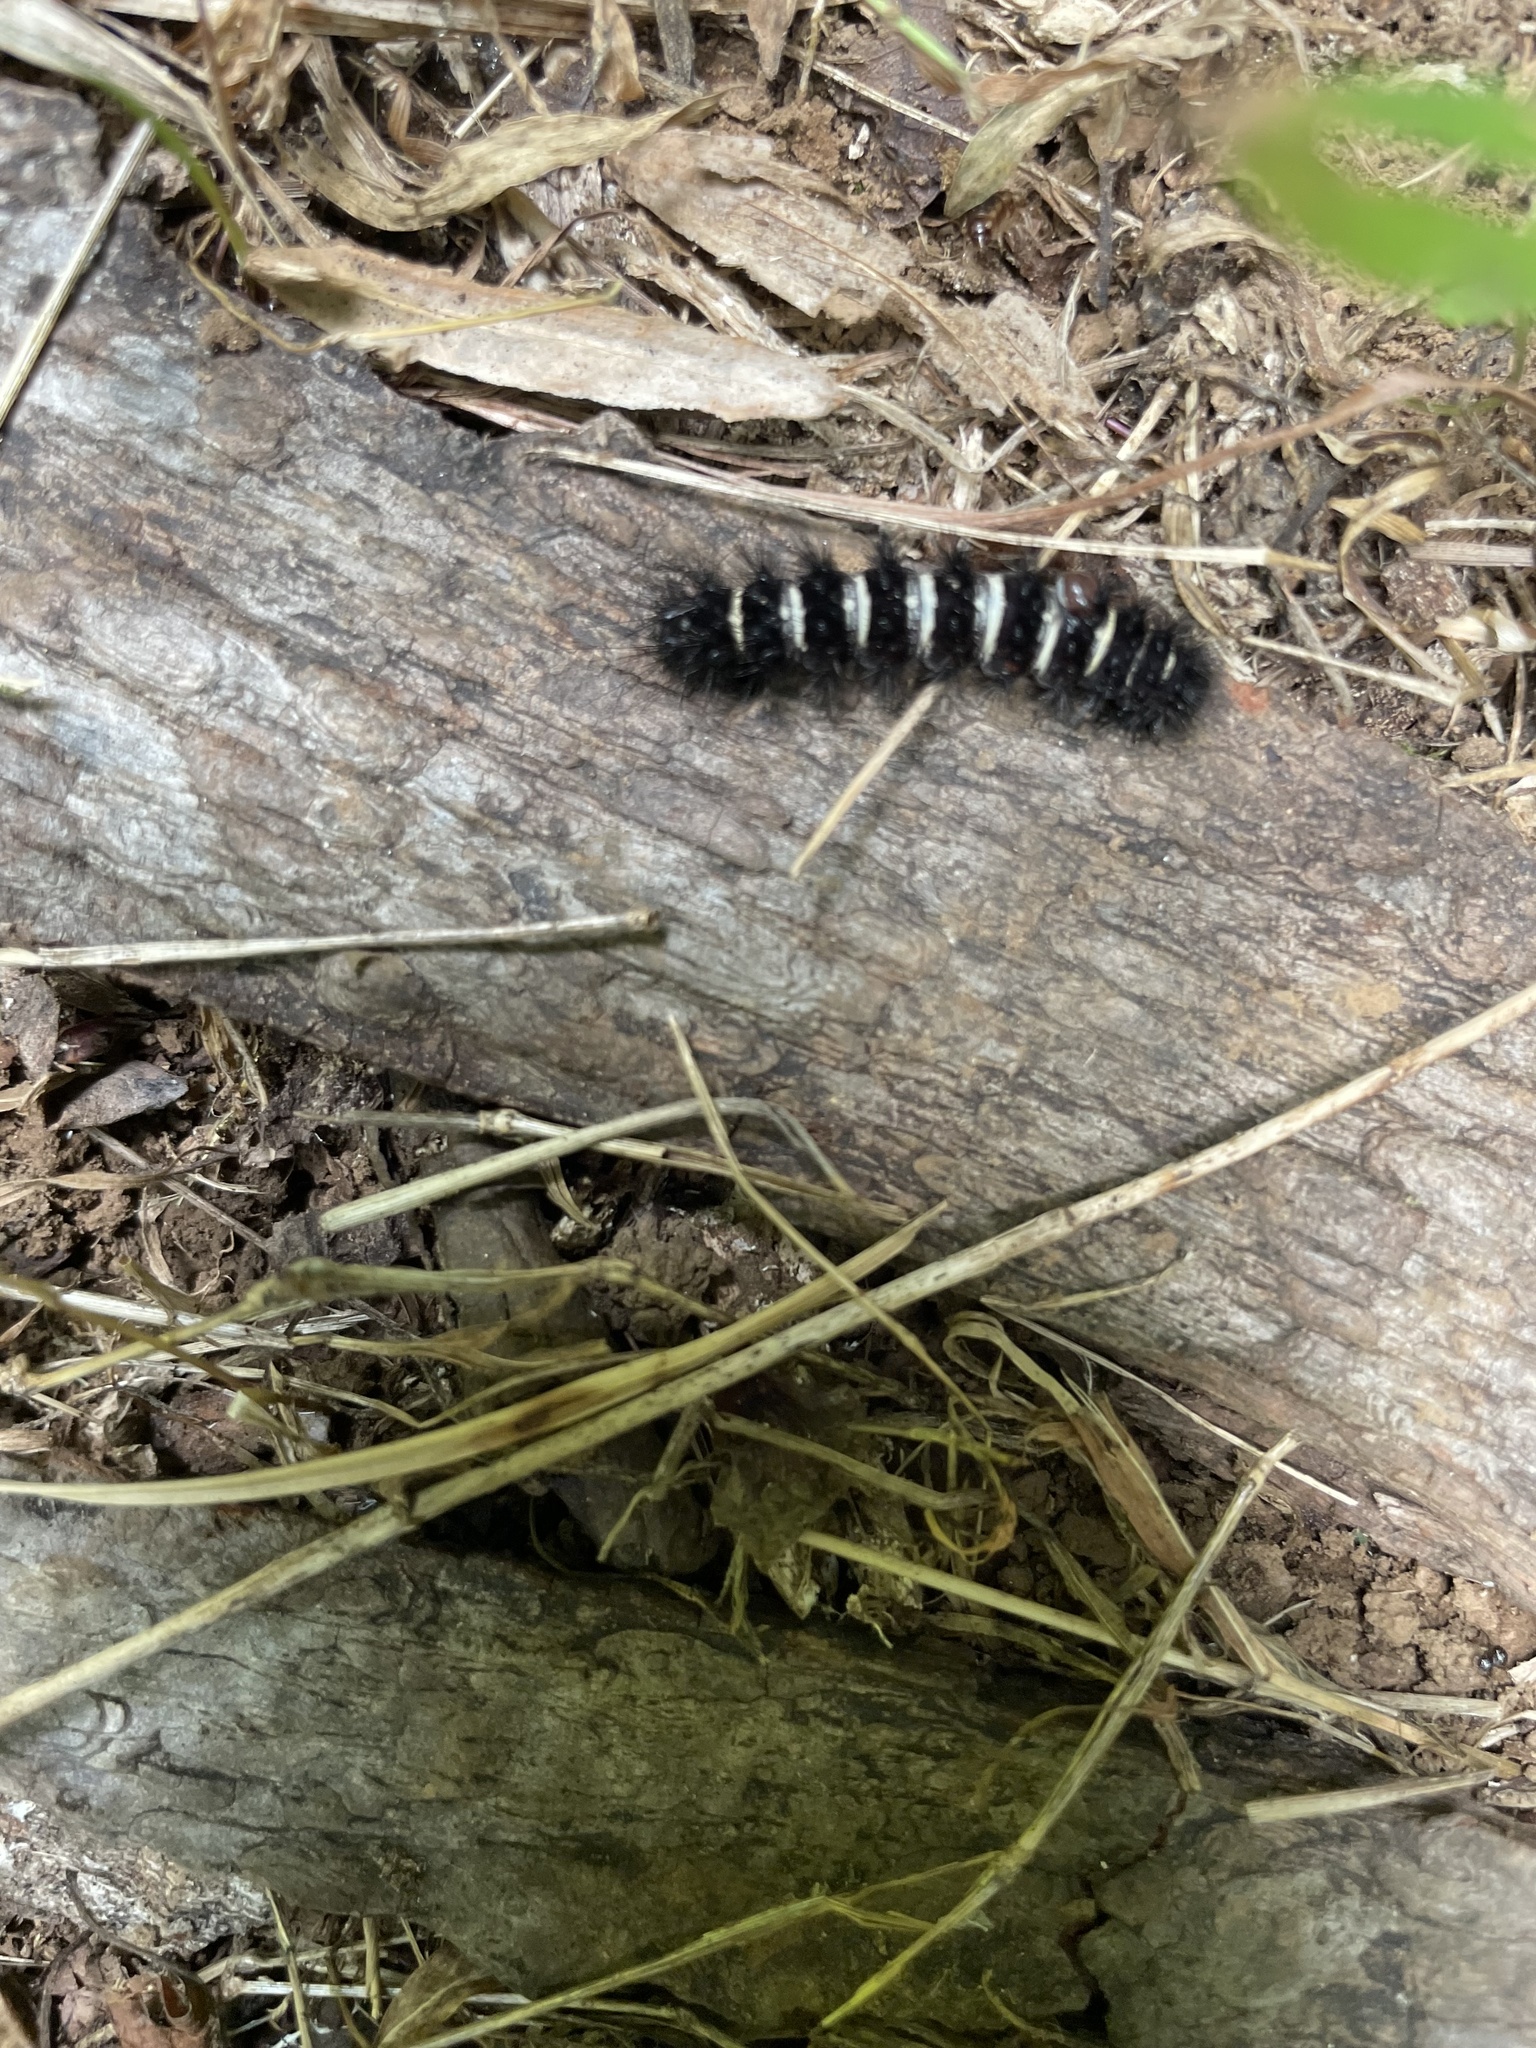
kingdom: Animalia
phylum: Arthropoda
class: Insecta
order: Lepidoptera
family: Erebidae
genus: Spilosoma
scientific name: Spilosoma congrua
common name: Agreeable tiger moth
